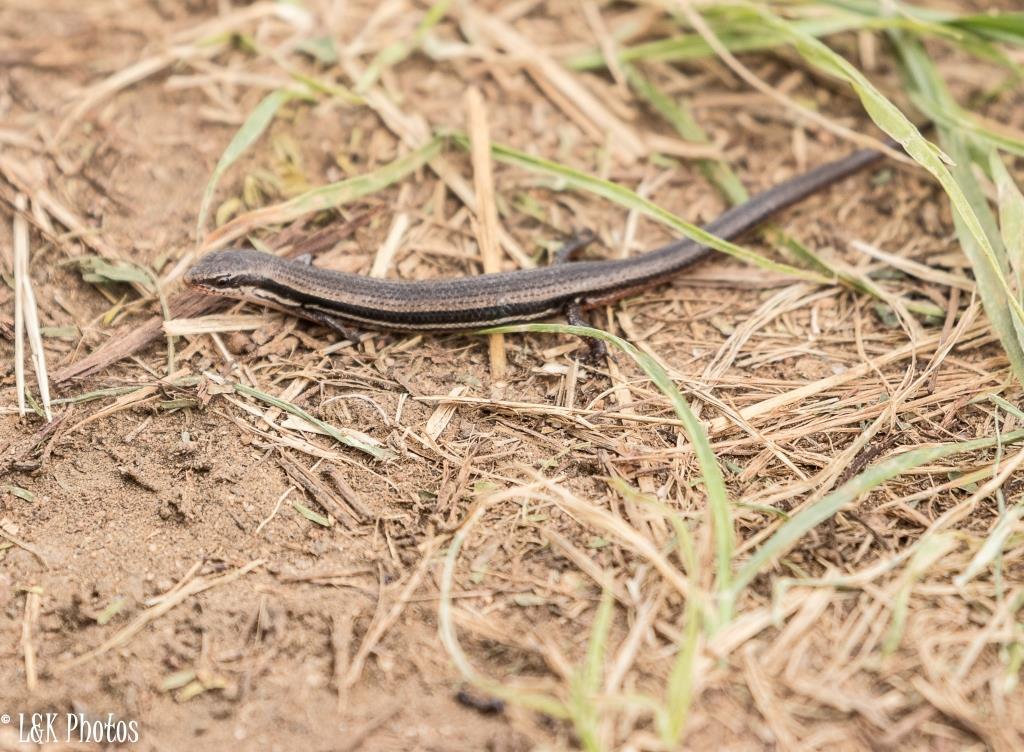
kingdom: Animalia
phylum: Chordata
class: Squamata
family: Scincidae
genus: Panaspis
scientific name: Panaspis wahlbergii
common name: Angolan snake-eyed skink
